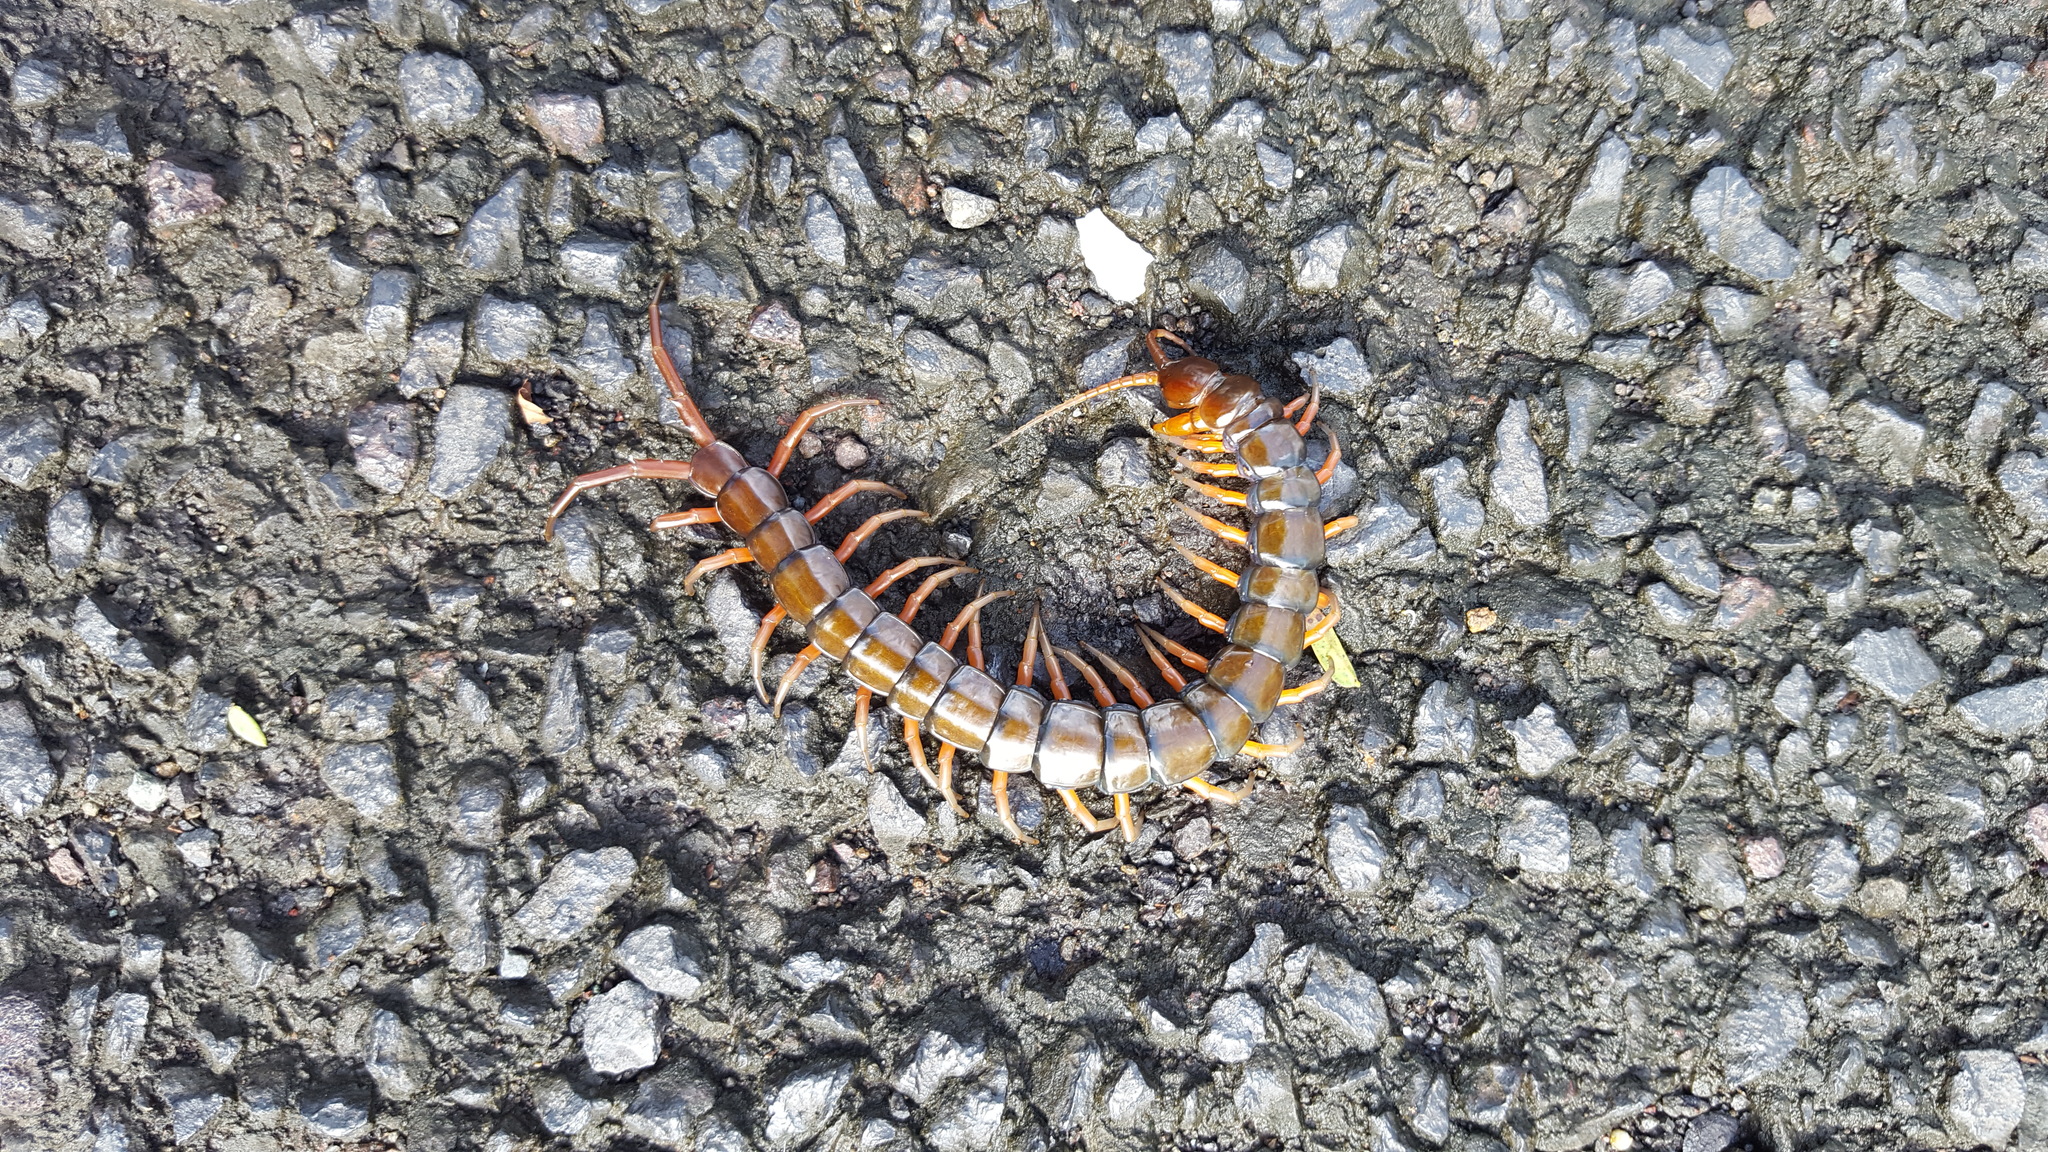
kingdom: Animalia
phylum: Arthropoda
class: Chilopoda
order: Scolopendromorpha
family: Scolopendridae
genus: Scolopendra
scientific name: Scolopendra subspinipes
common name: Centipede
